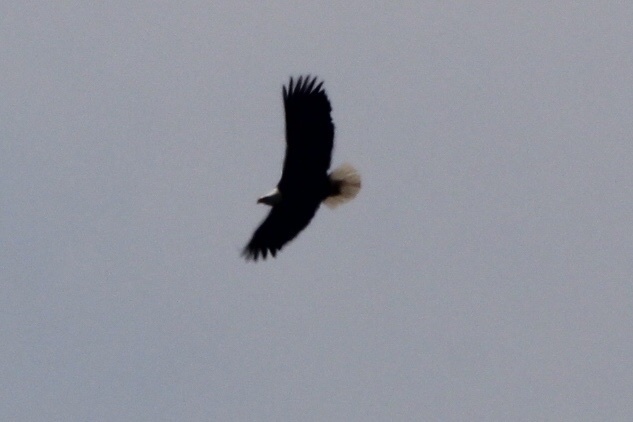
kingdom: Animalia
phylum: Chordata
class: Aves
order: Accipitriformes
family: Accipitridae
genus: Haliaeetus
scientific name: Haliaeetus leucocephalus
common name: Bald eagle
